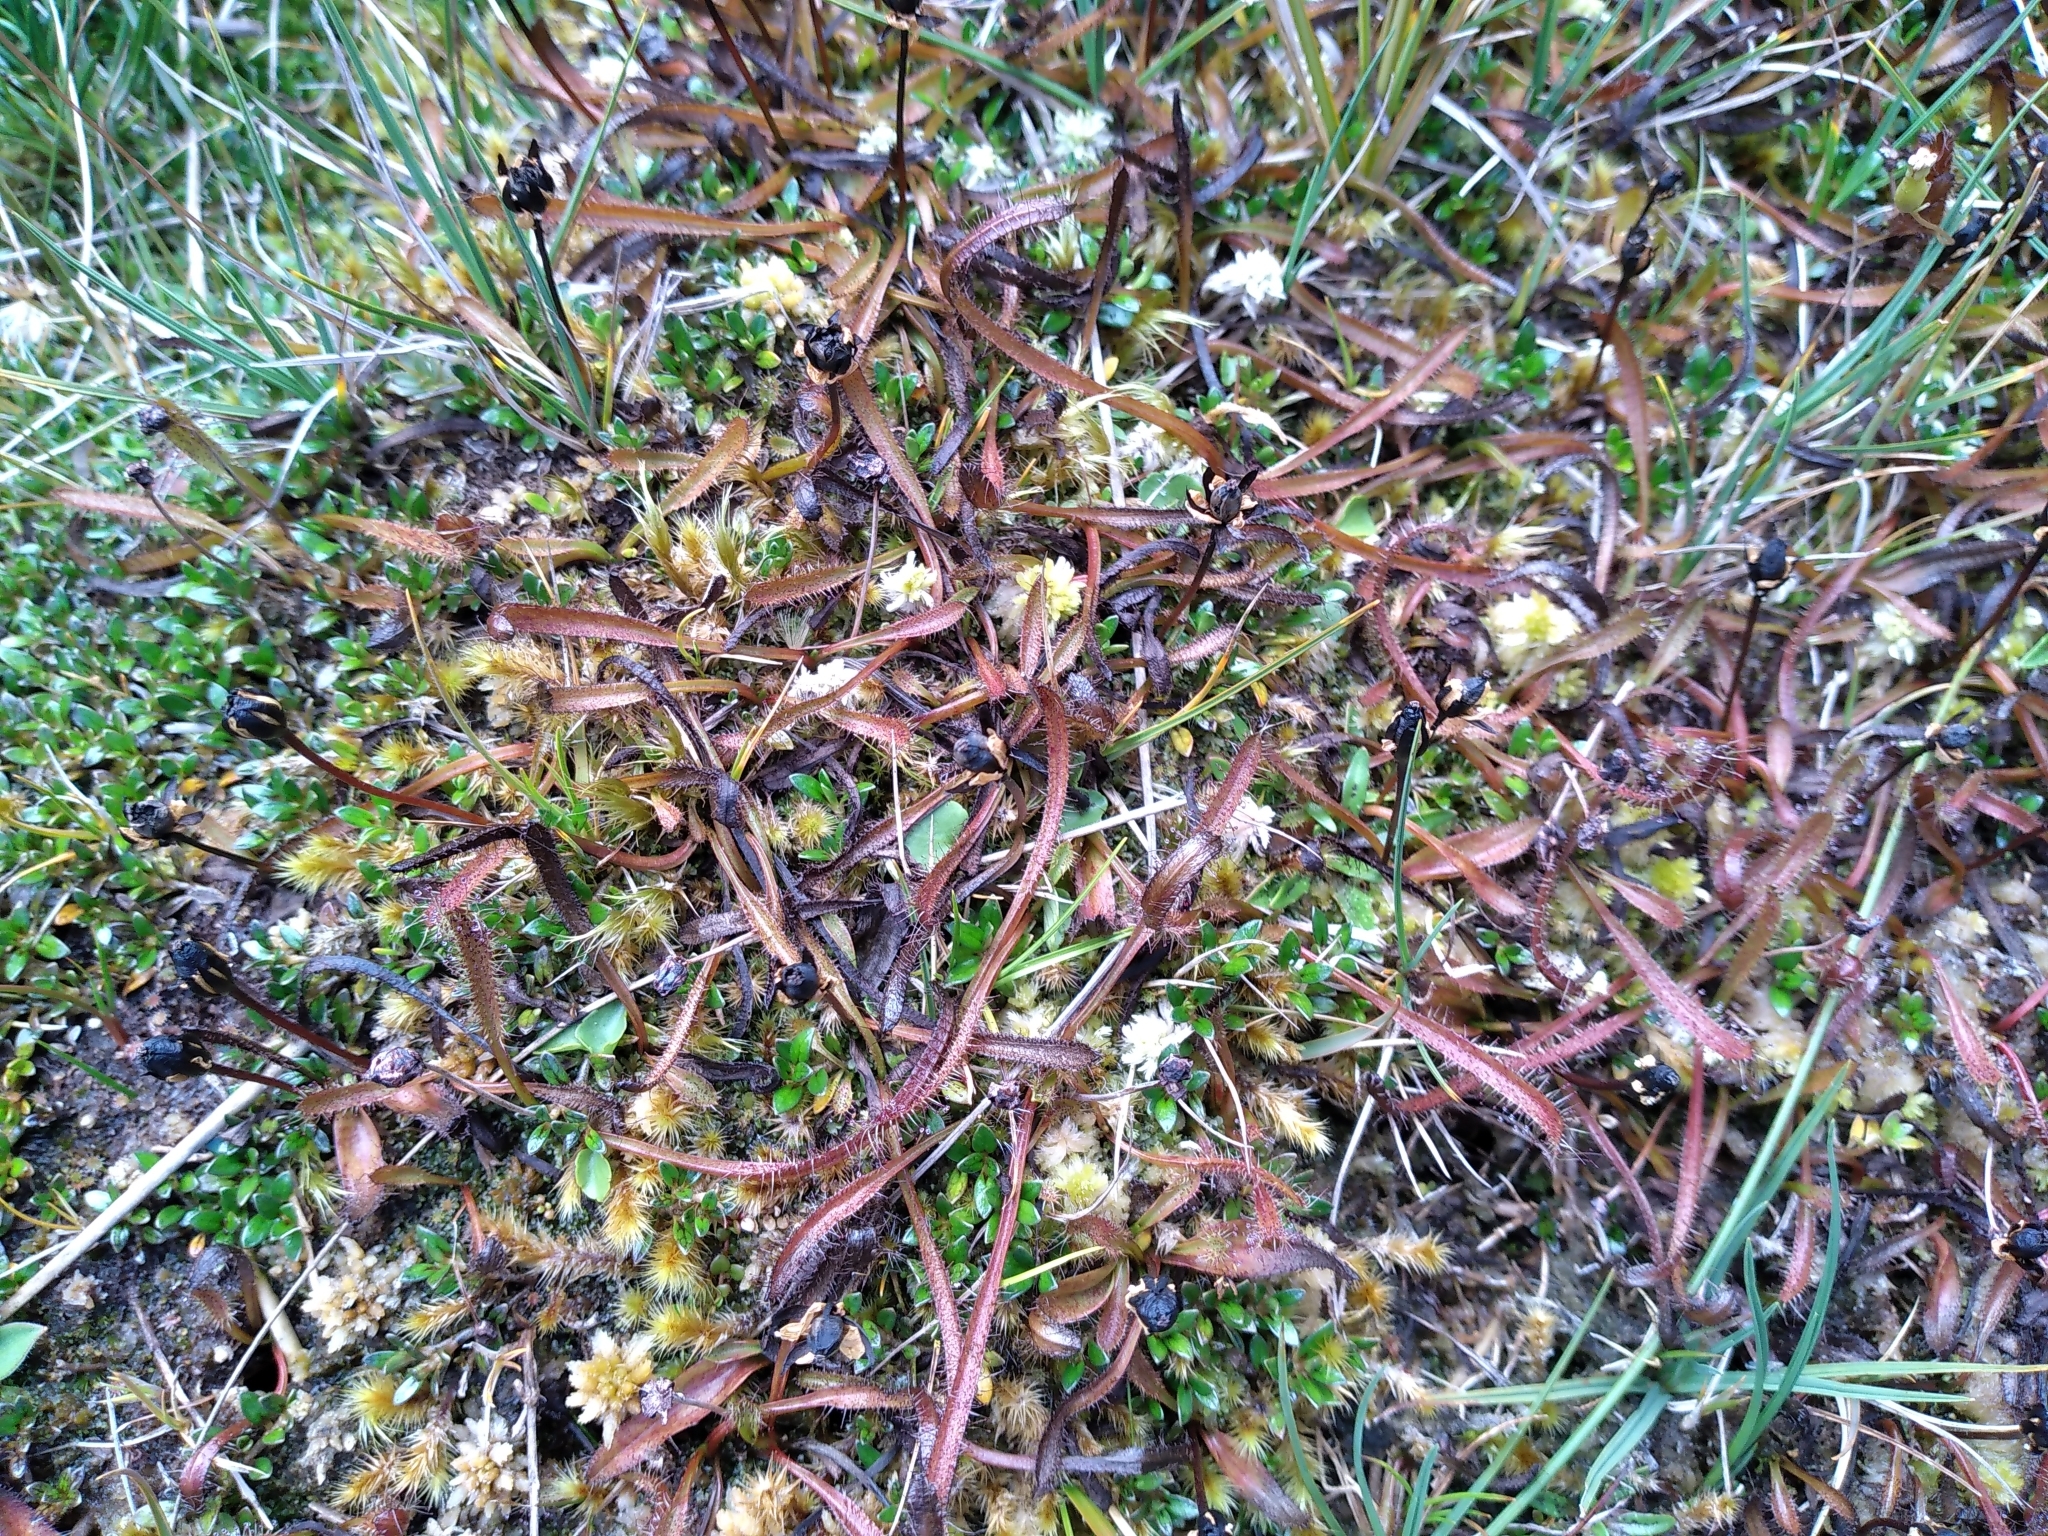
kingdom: Plantae
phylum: Tracheophyta
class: Magnoliopsida
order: Caryophyllales
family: Droseraceae
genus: Drosera
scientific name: Drosera arcturi
